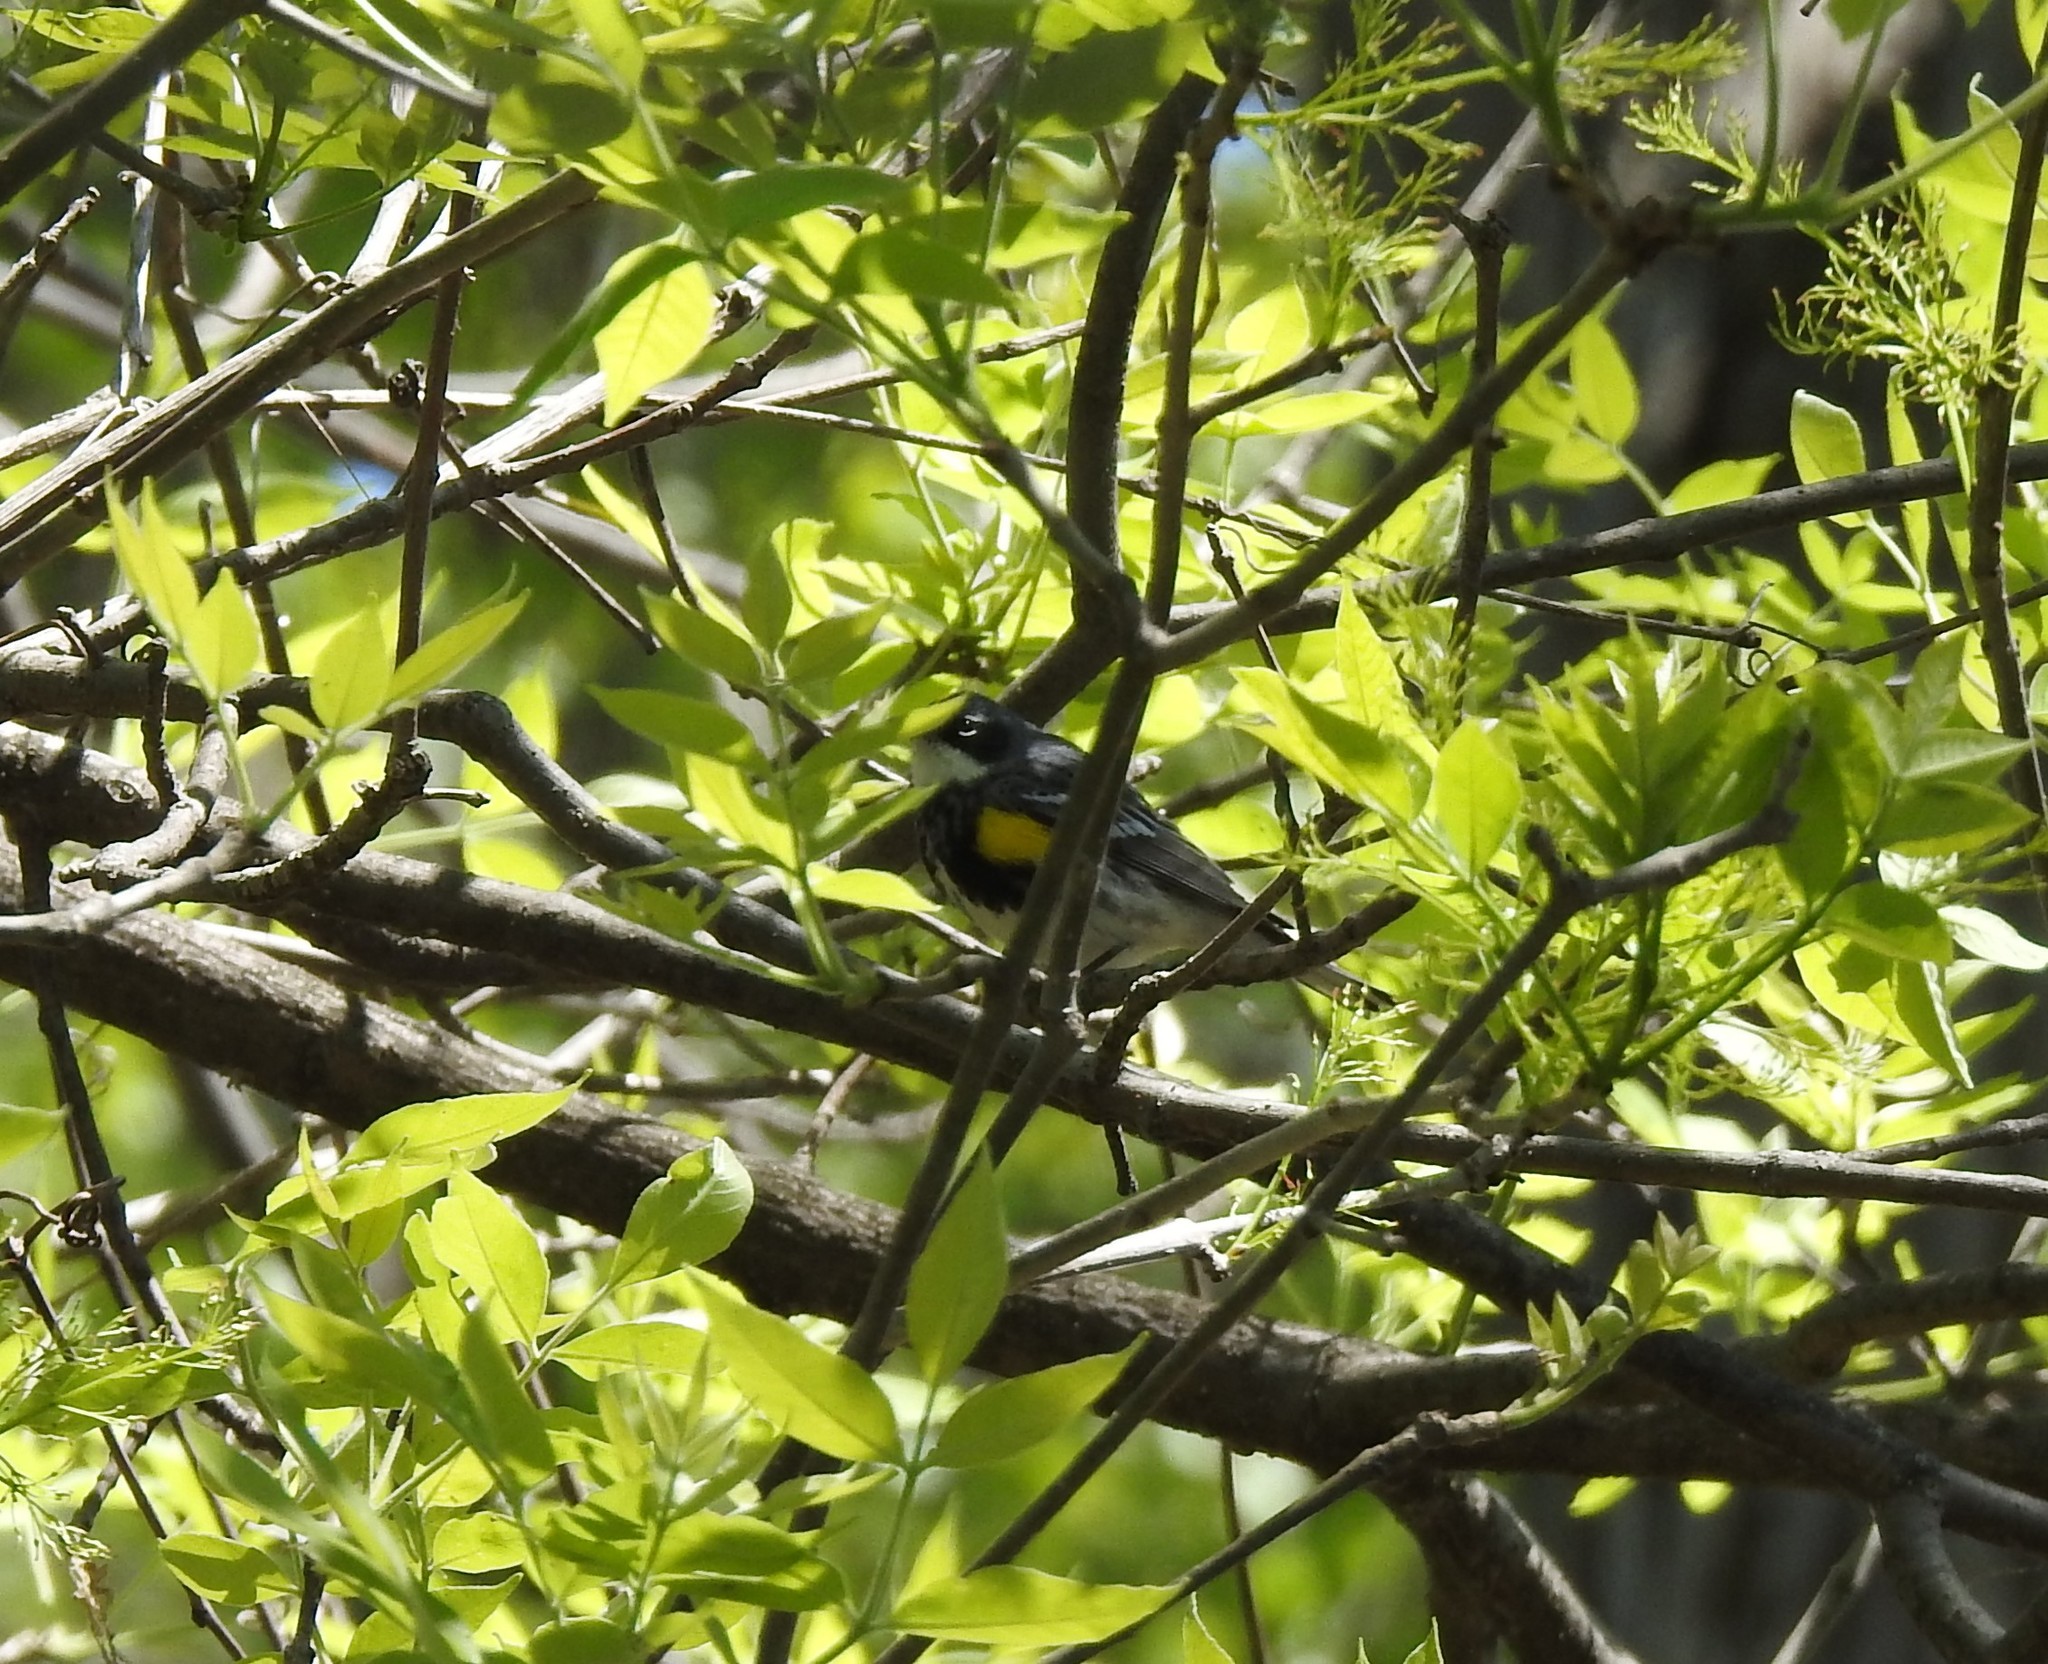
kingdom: Animalia
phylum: Chordata
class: Aves
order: Passeriformes
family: Parulidae
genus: Setophaga
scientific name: Setophaga coronata
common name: Myrtle warbler
